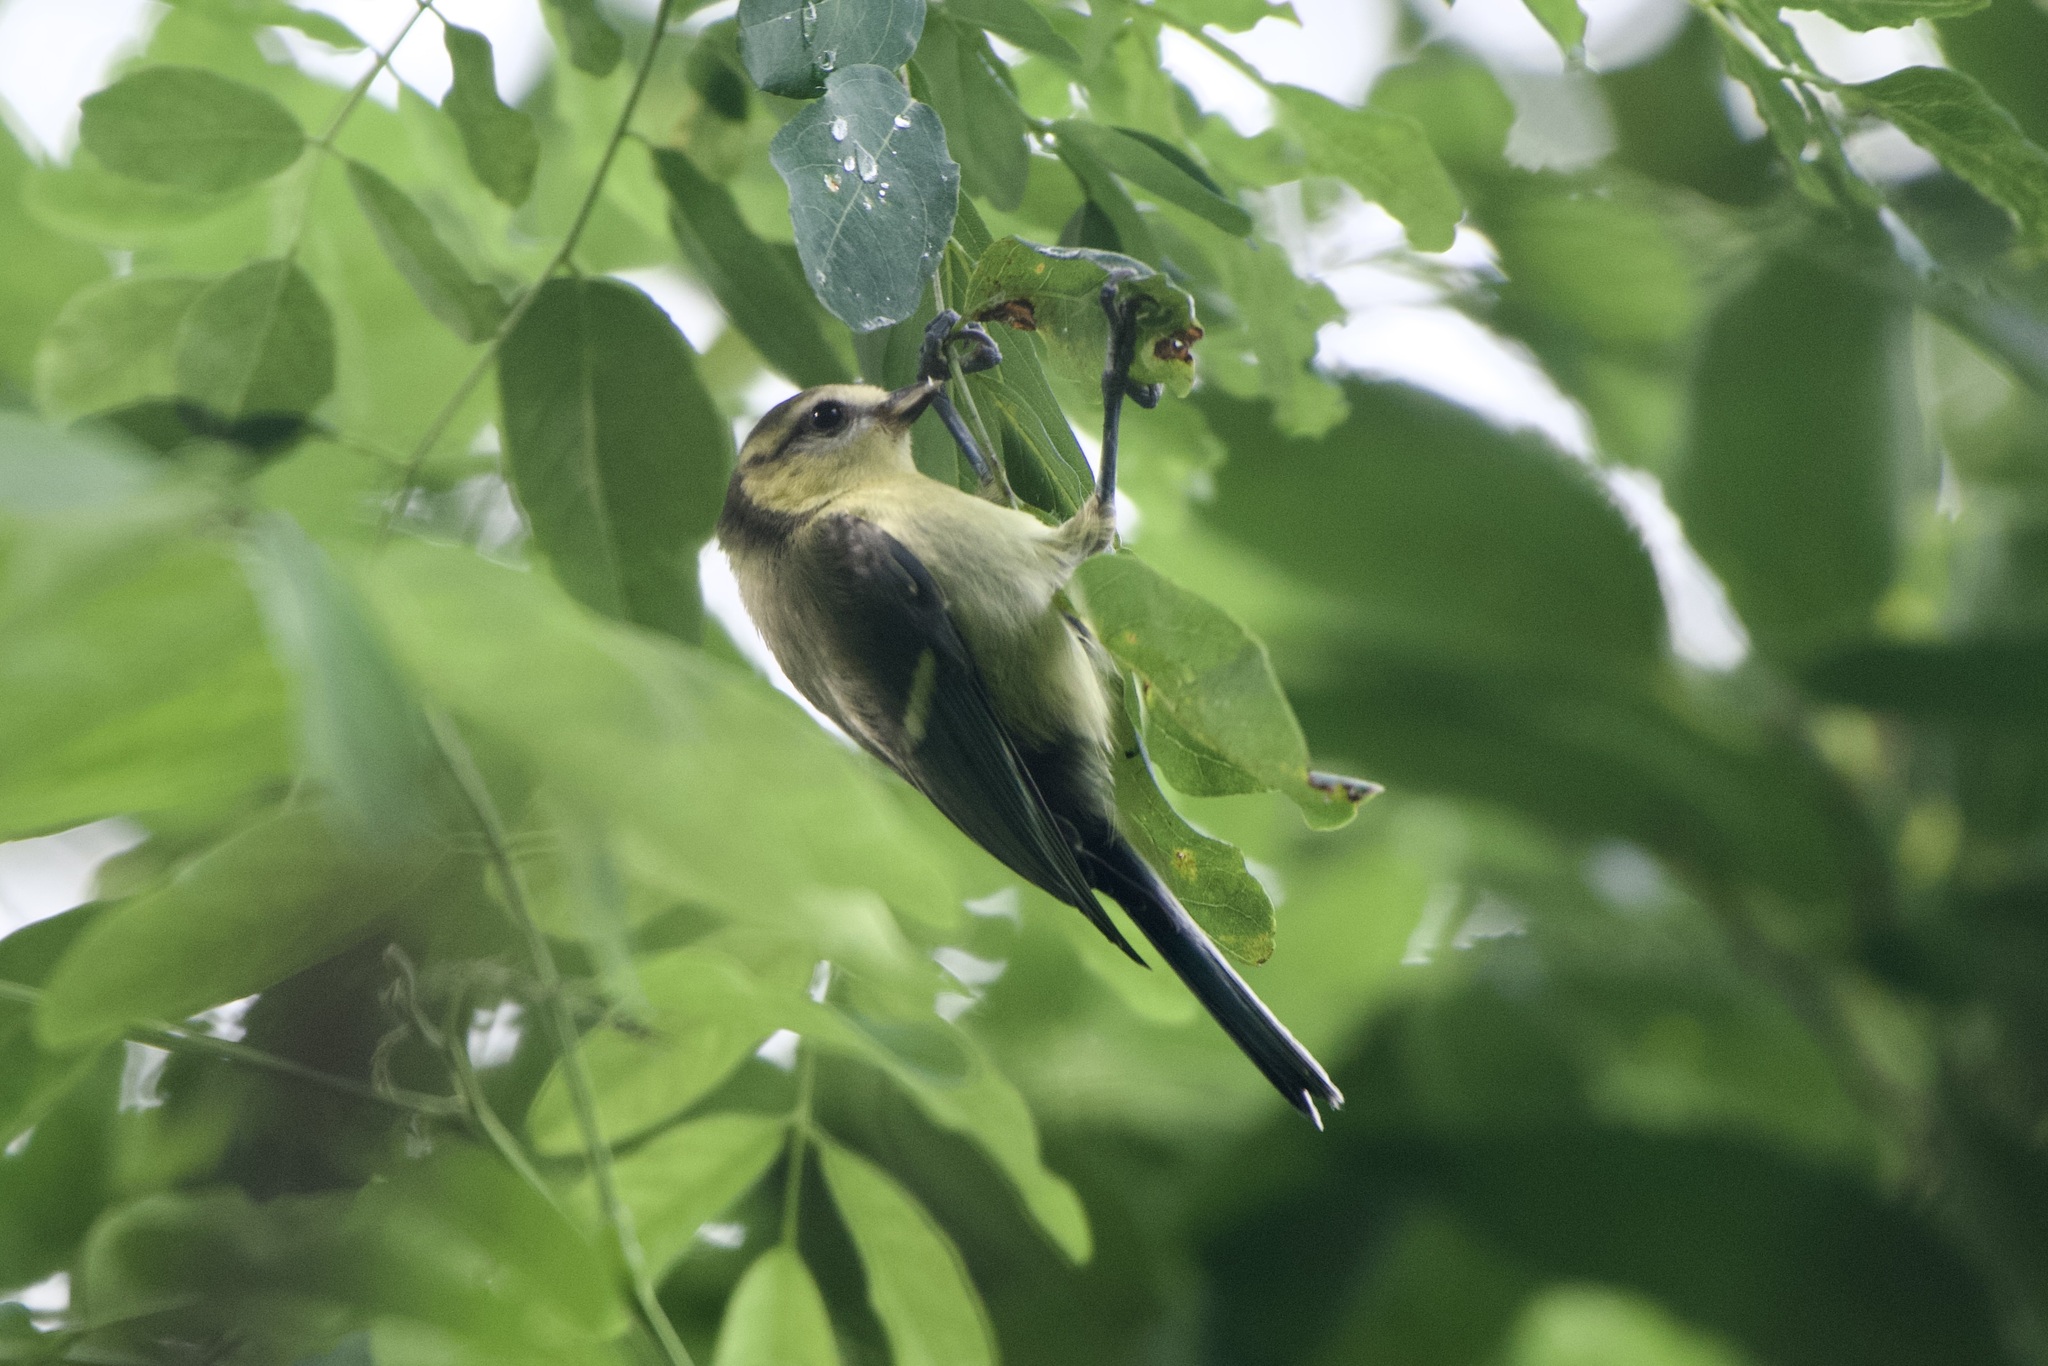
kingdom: Animalia
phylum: Chordata
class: Aves
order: Passeriformes
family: Paridae
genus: Cyanistes
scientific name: Cyanistes caeruleus
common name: Eurasian blue tit
